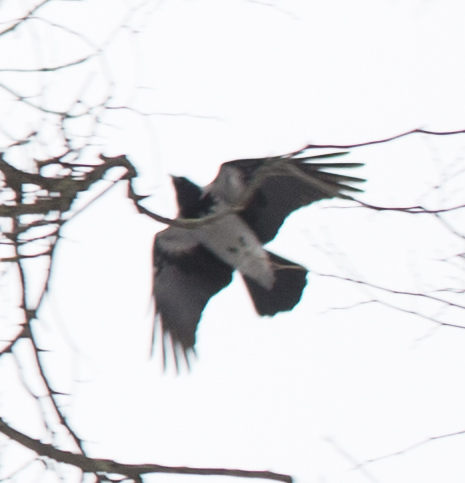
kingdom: Animalia
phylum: Chordata
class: Aves
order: Passeriformes
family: Corvidae
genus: Corvus
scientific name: Corvus cornix
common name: Hooded crow
